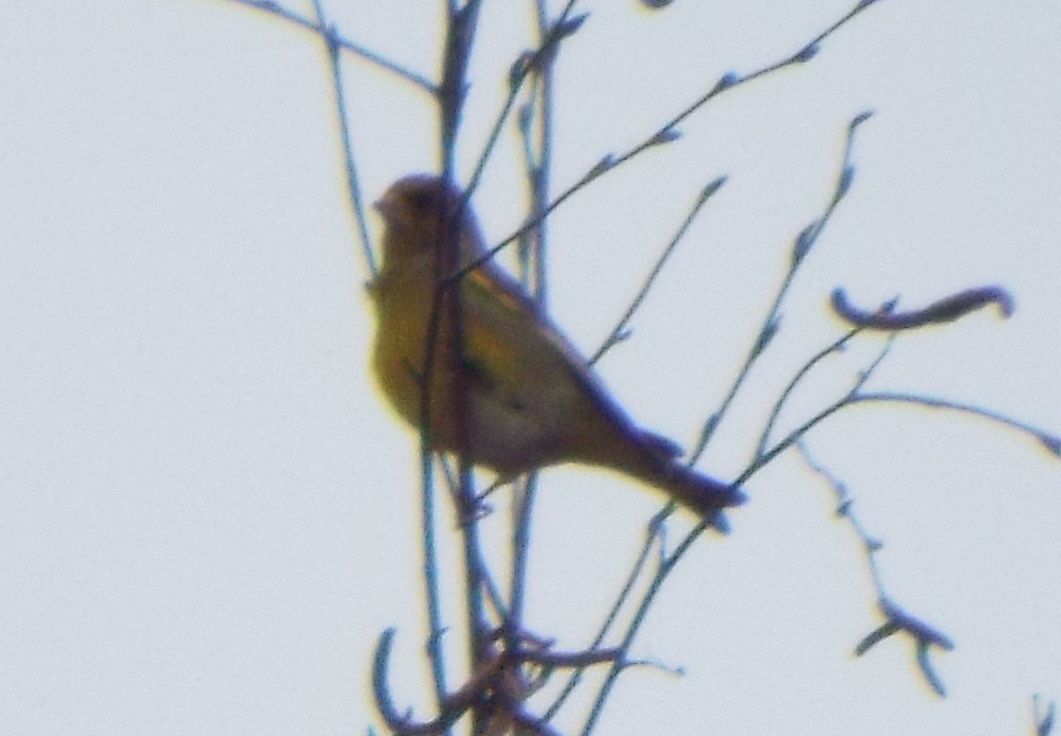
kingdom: Plantae
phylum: Tracheophyta
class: Liliopsida
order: Poales
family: Poaceae
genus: Chloris
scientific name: Chloris chloris
